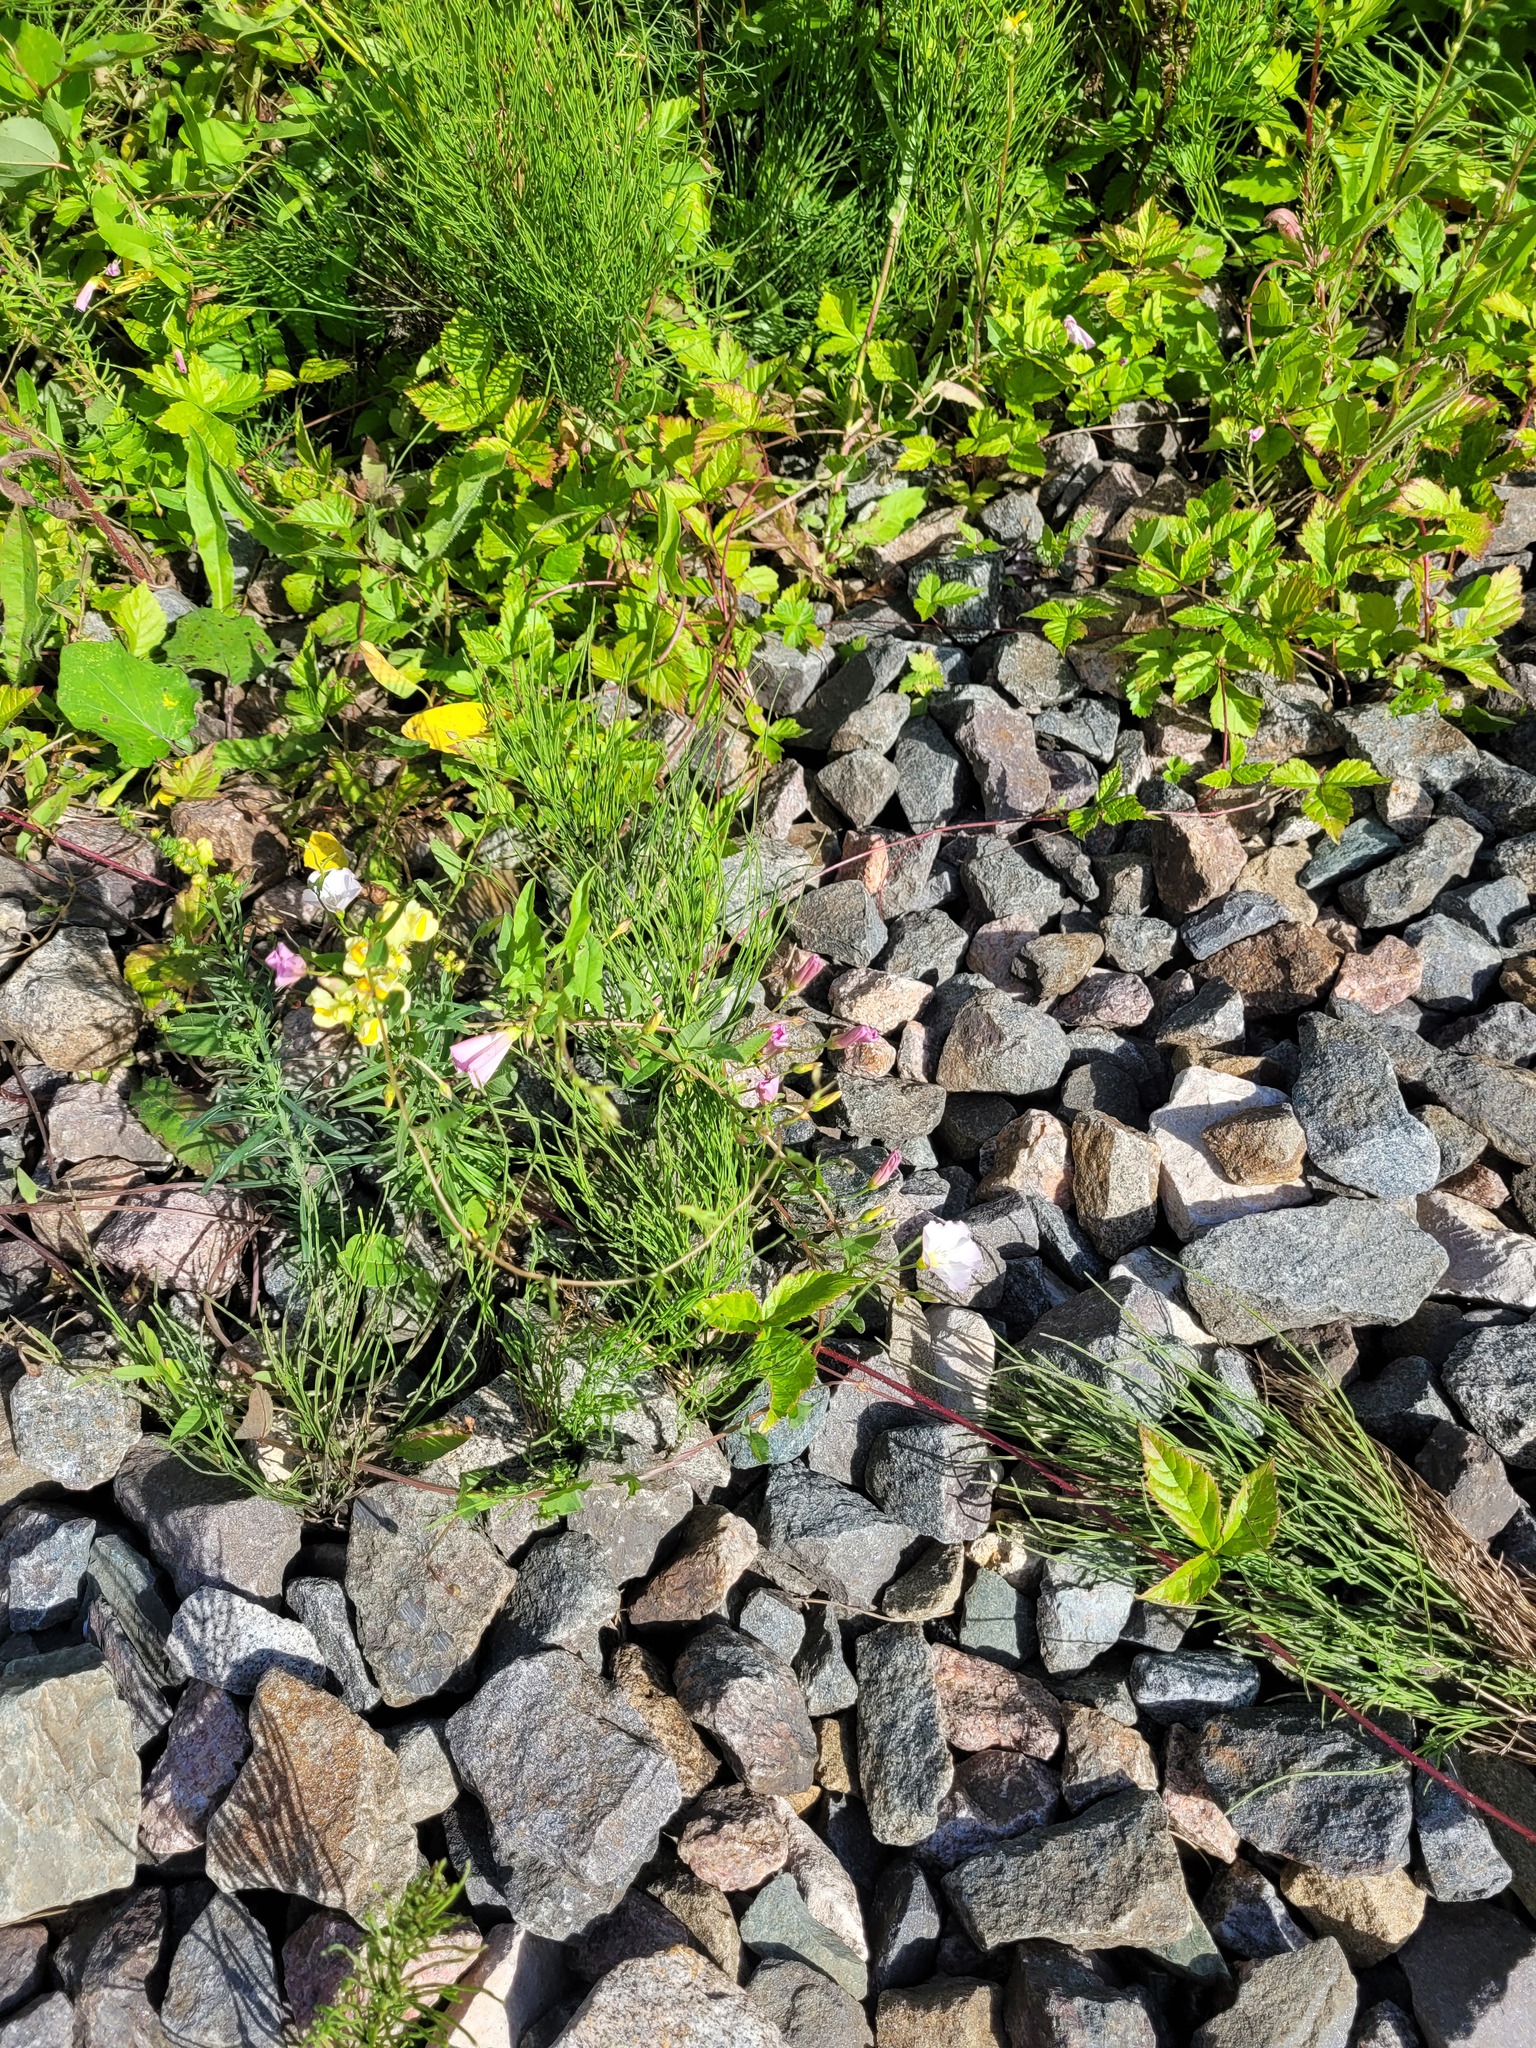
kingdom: Plantae
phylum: Tracheophyta
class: Magnoliopsida
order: Solanales
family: Convolvulaceae
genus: Convolvulus
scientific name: Convolvulus arvensis
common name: Field bindweed
